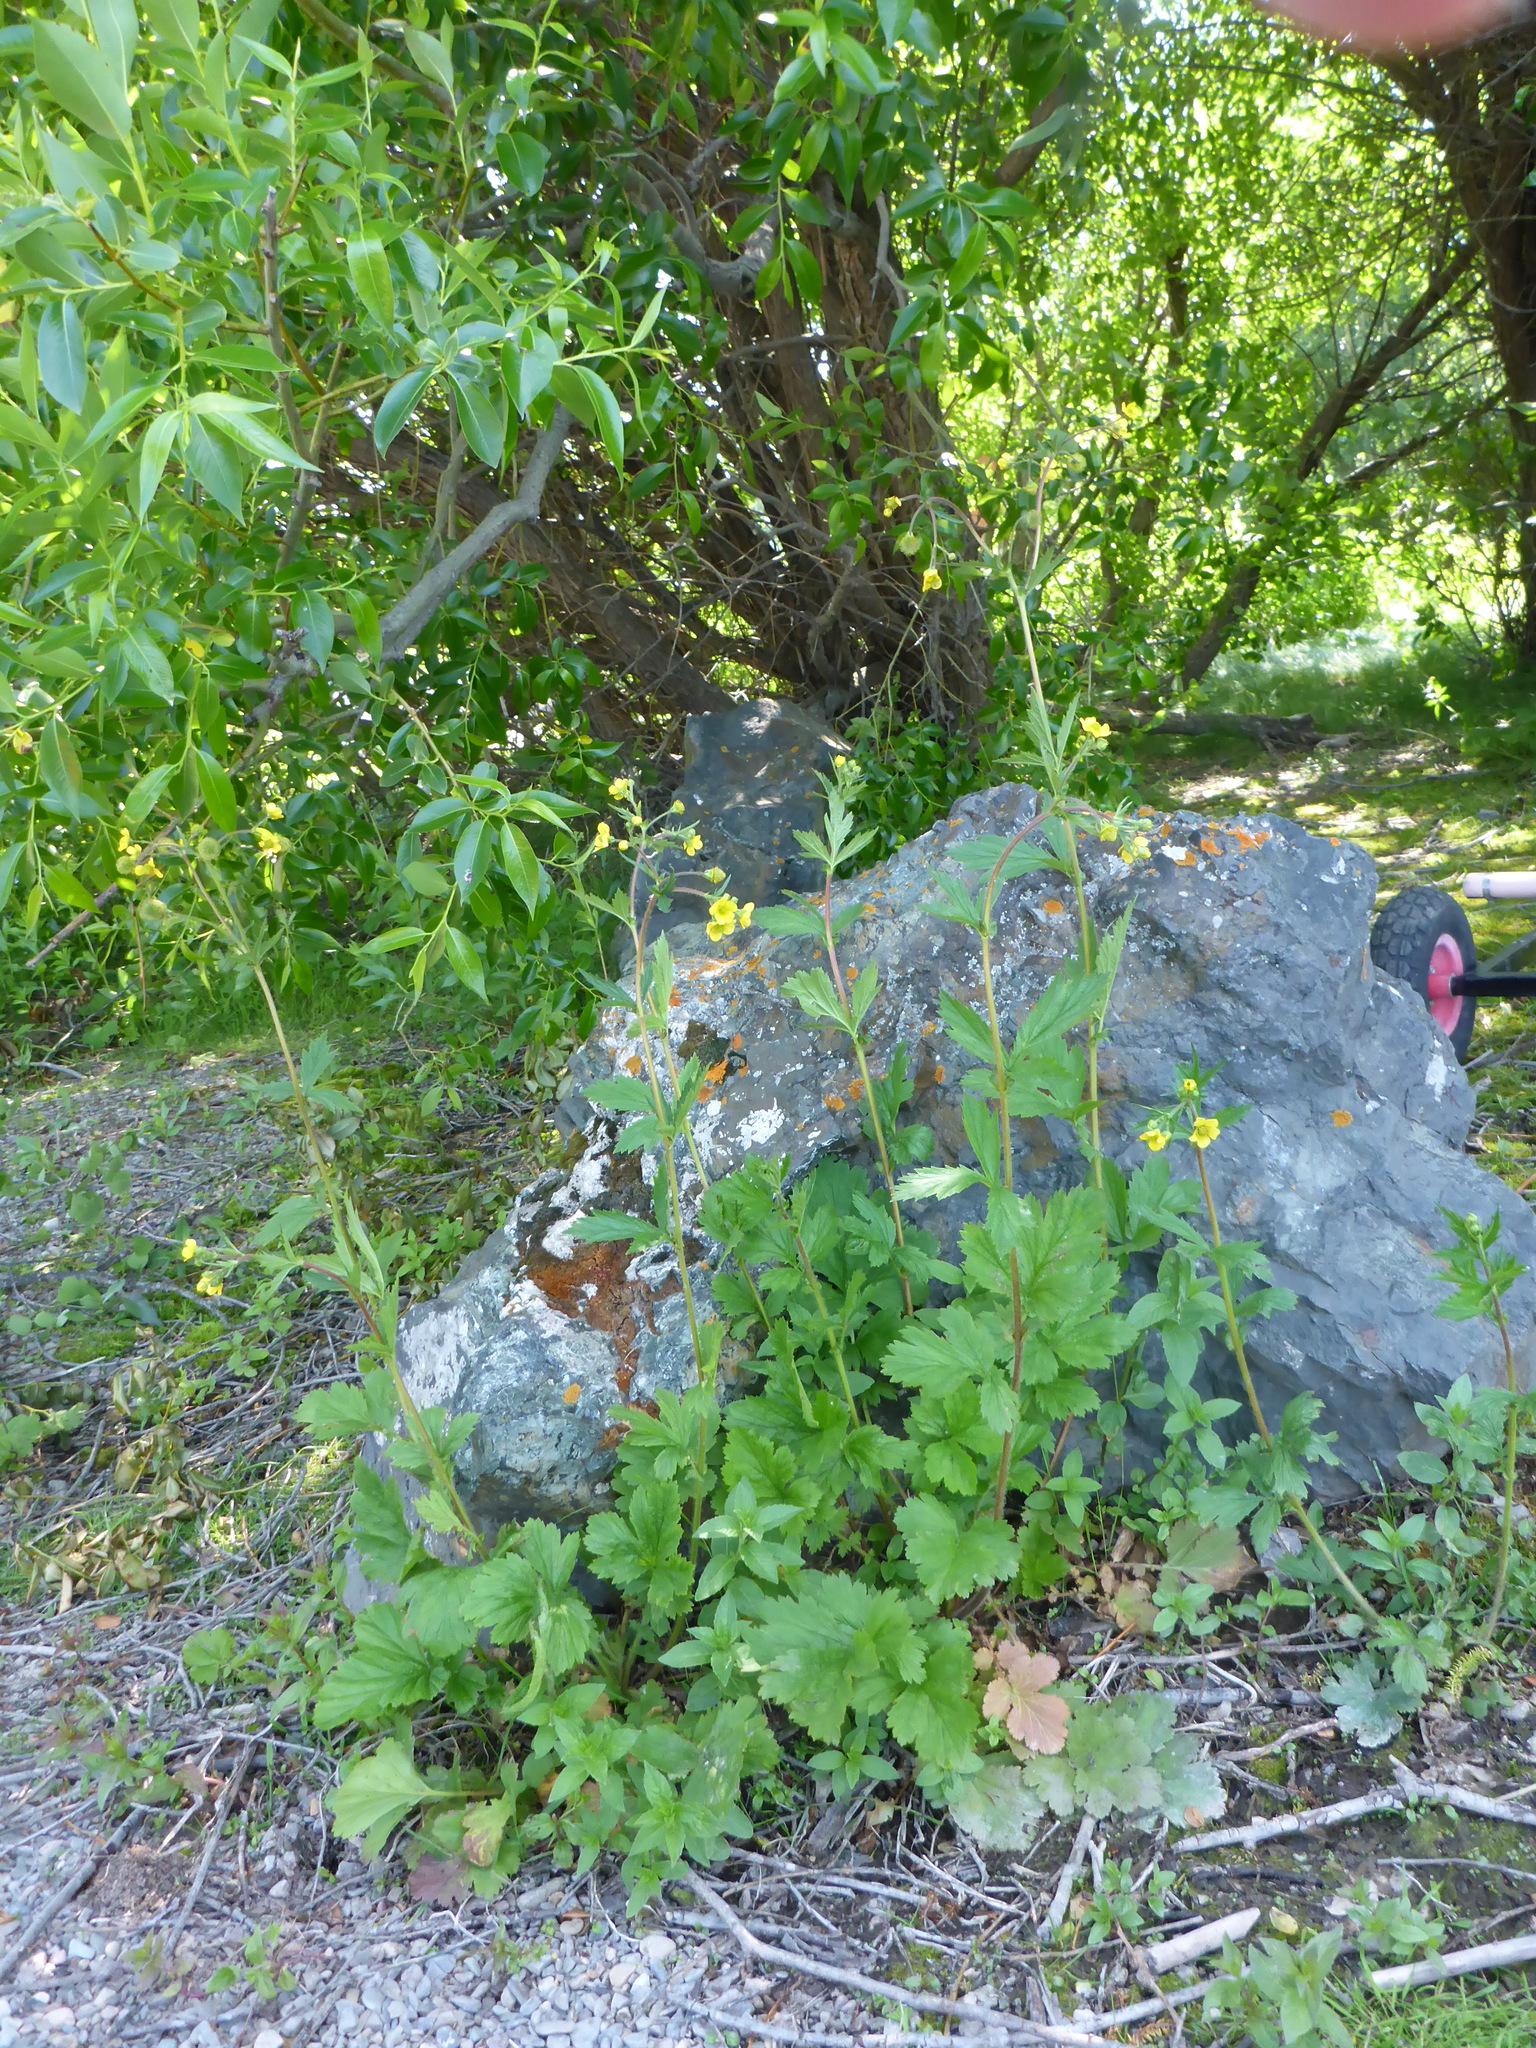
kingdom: Plantae
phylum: Tracheophyta
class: Magnoliopsida
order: Rosales
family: Rosaceae
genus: Geum
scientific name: Geum macrophyllum
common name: Large-leaved avens
